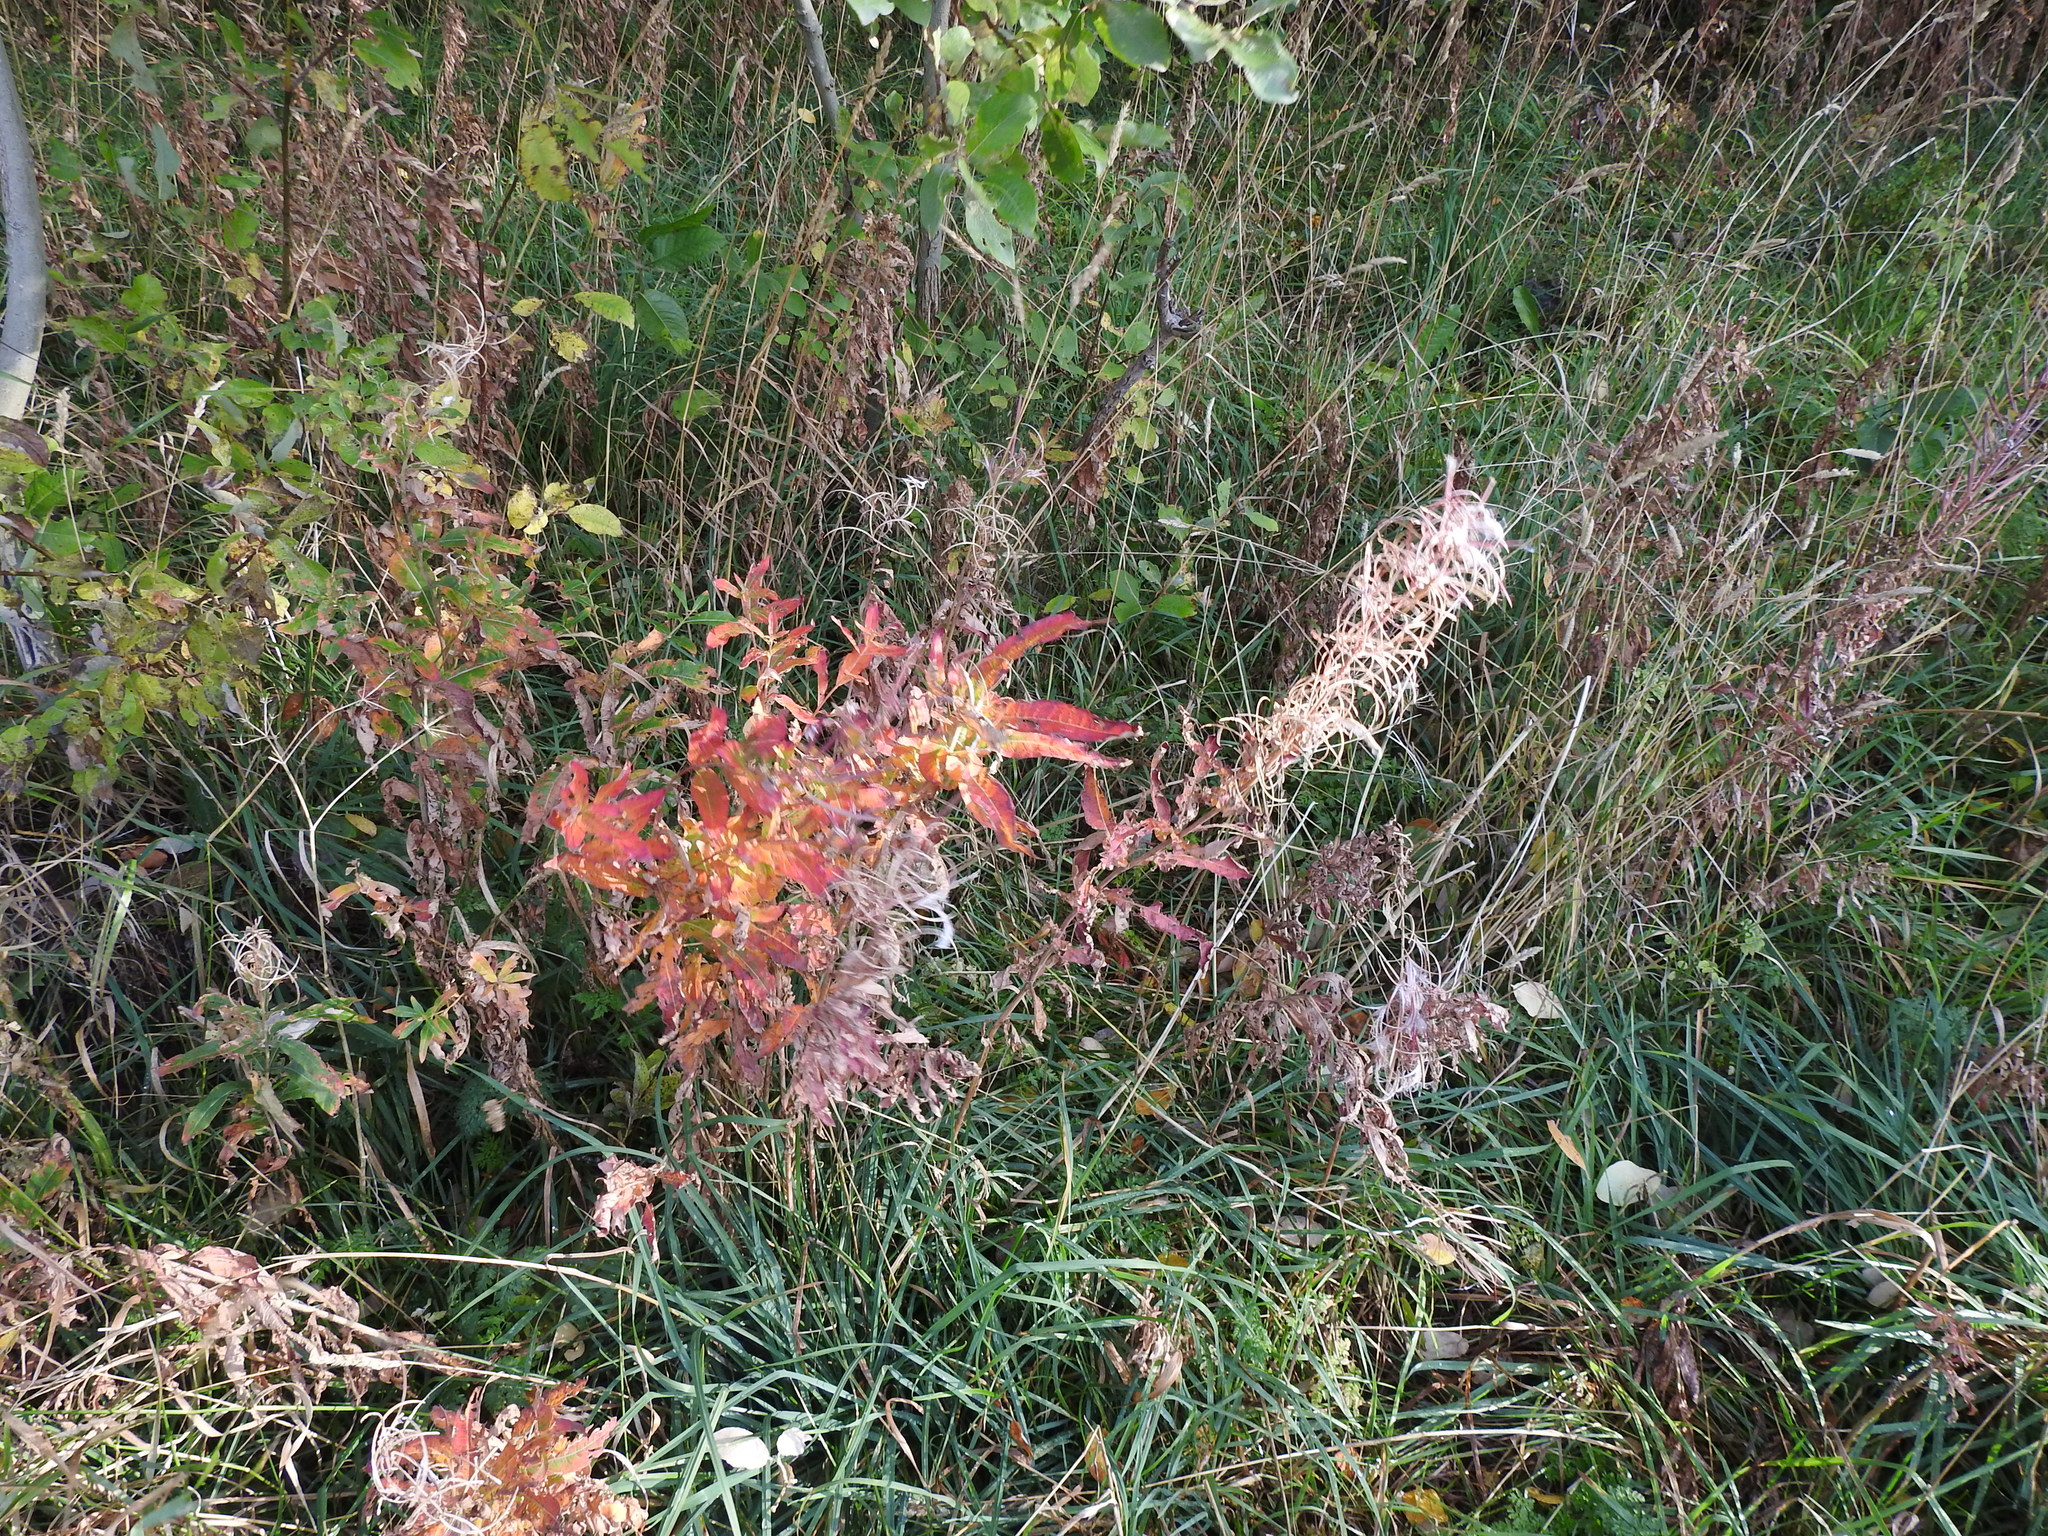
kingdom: Plantae
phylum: Tracheophyta
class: Magnoliopsida
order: Myrtales
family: Onagraceae
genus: Chamaenerion
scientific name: Chamaenerion angustifolium
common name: Fireweed
